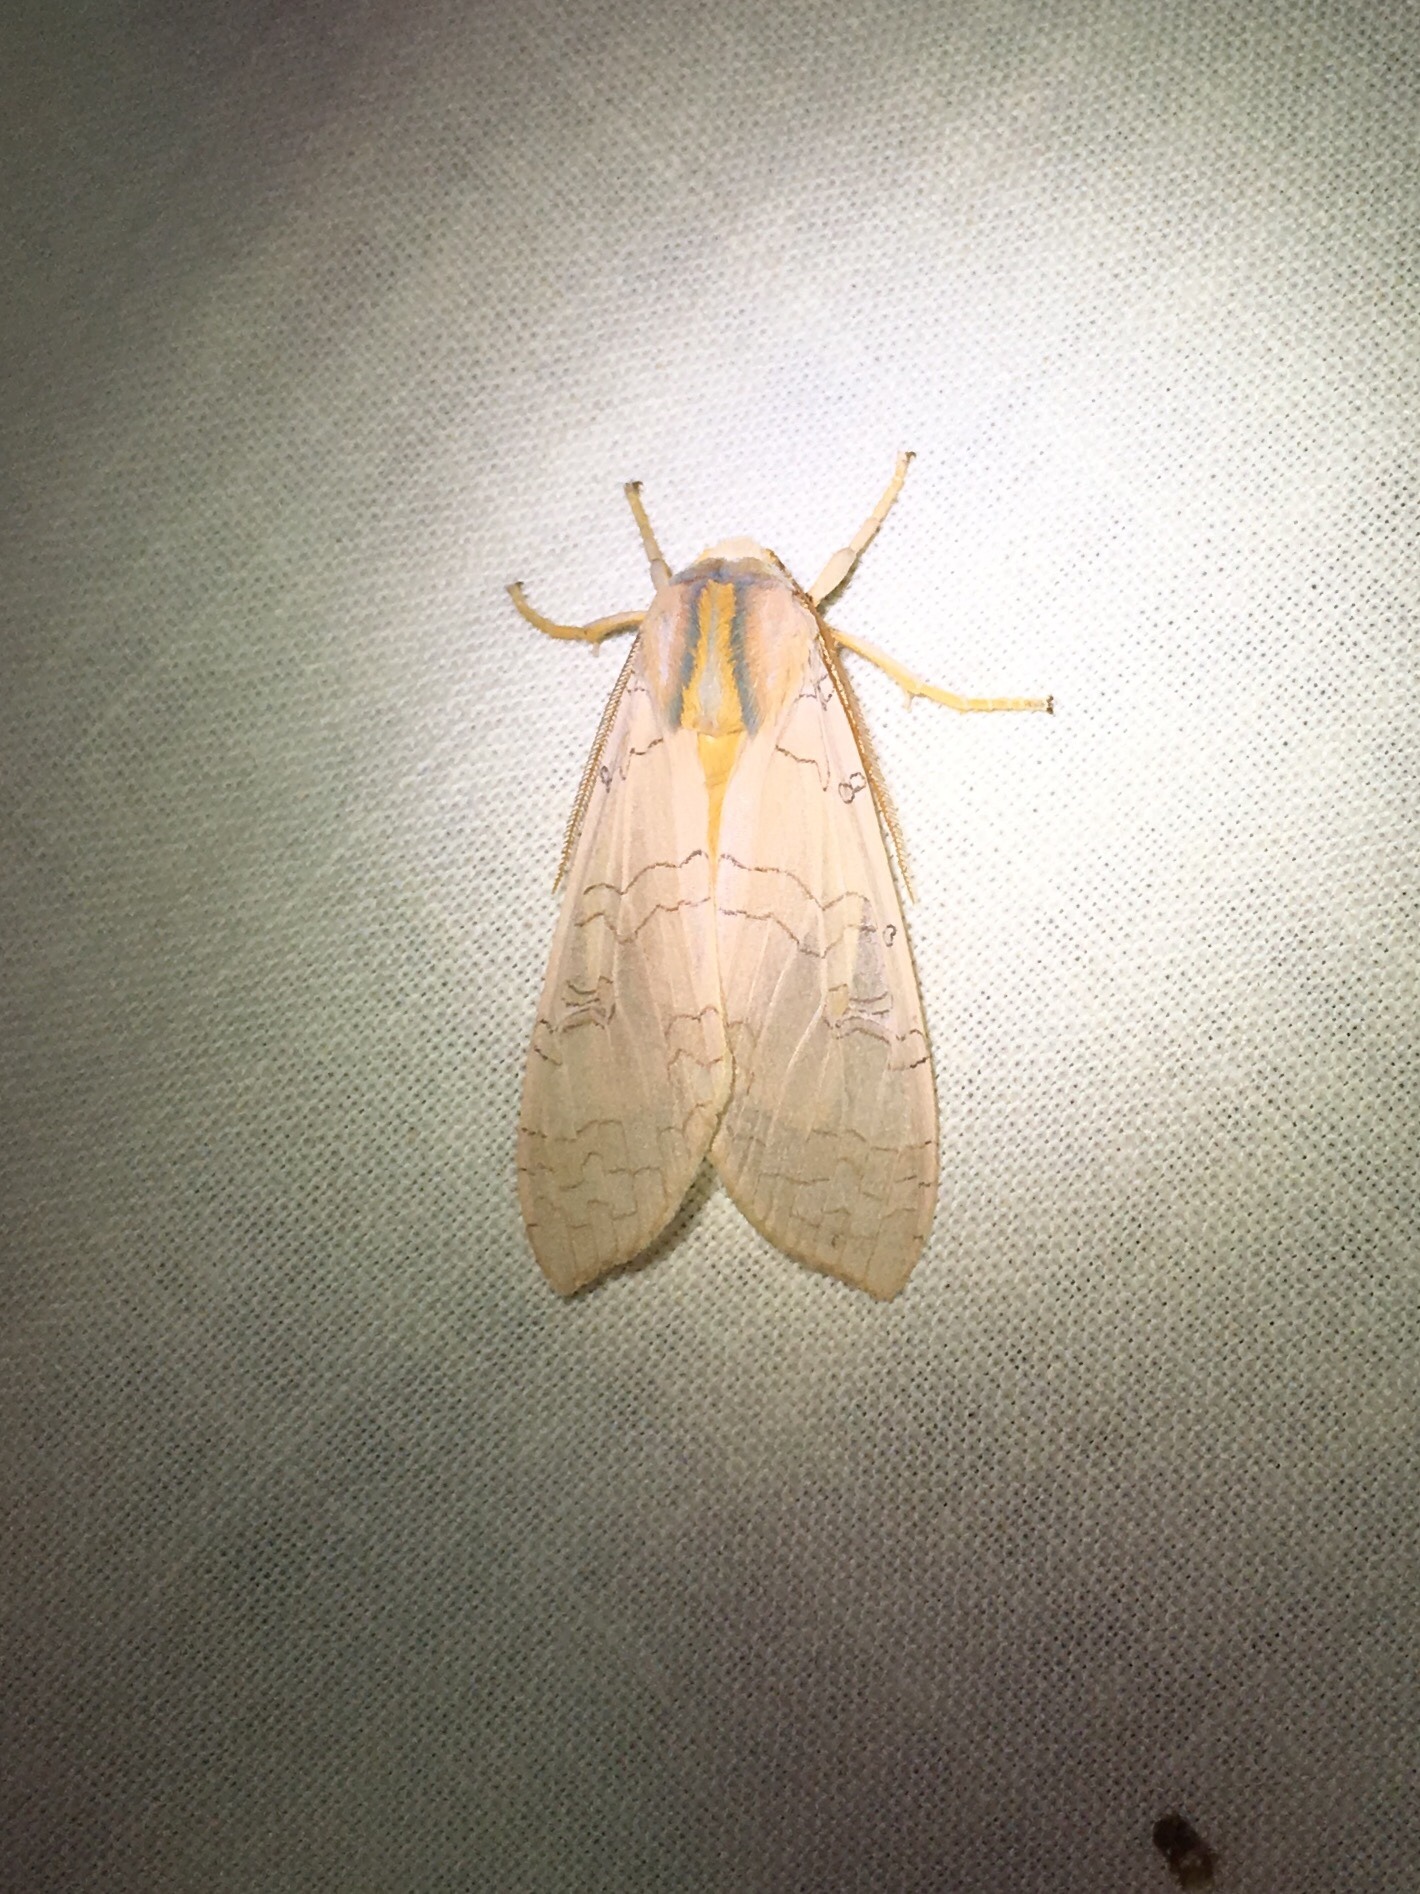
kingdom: Animalia
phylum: Arthropoda
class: Insecta
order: Lepidoptera
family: Erebidae
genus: Halysidota
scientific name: Halysidota tessellaris
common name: Banded tussock moth
